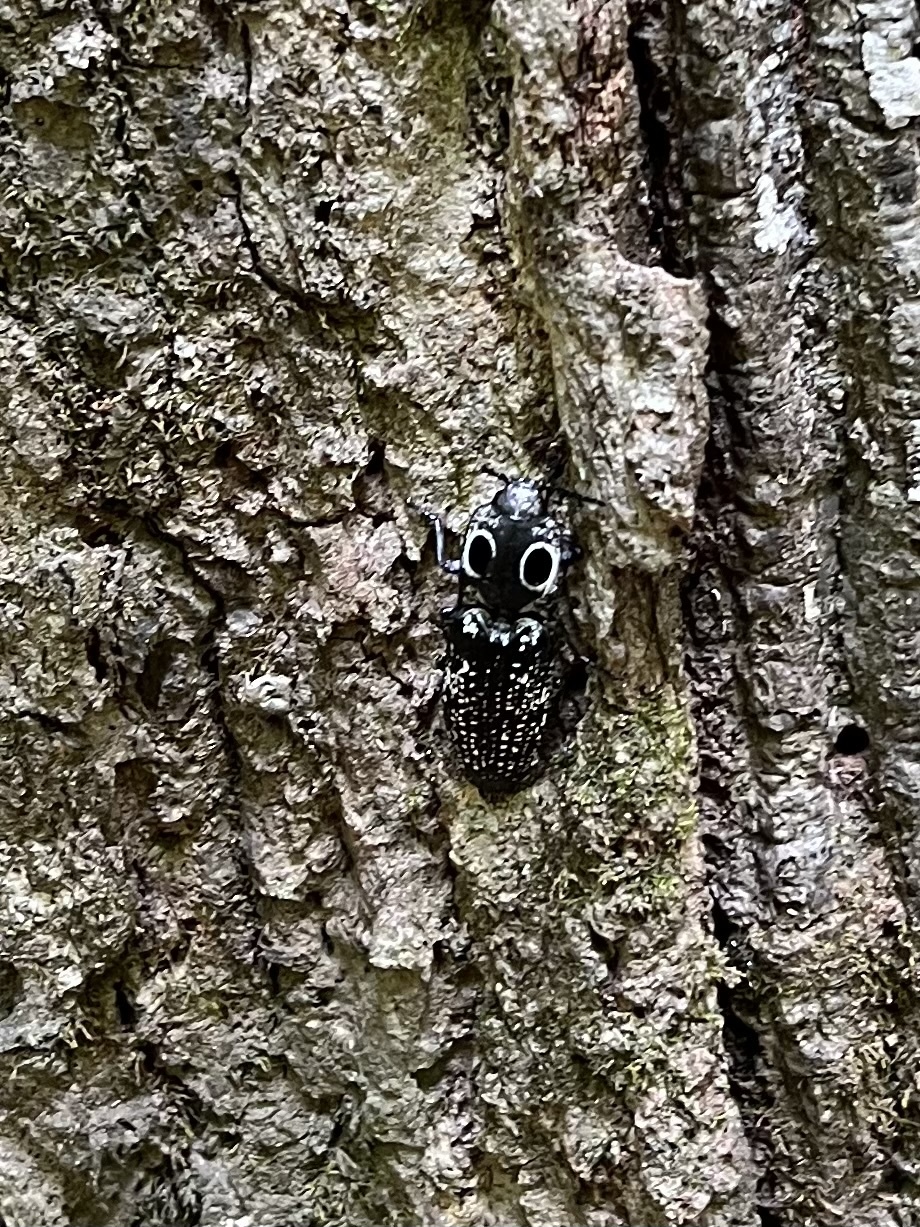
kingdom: Animalia
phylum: Arthropoda
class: Insecta
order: Coleoptera
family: Elateridae
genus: Alaus
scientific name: Alaus oculatus
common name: Eastern eyed click beetle
